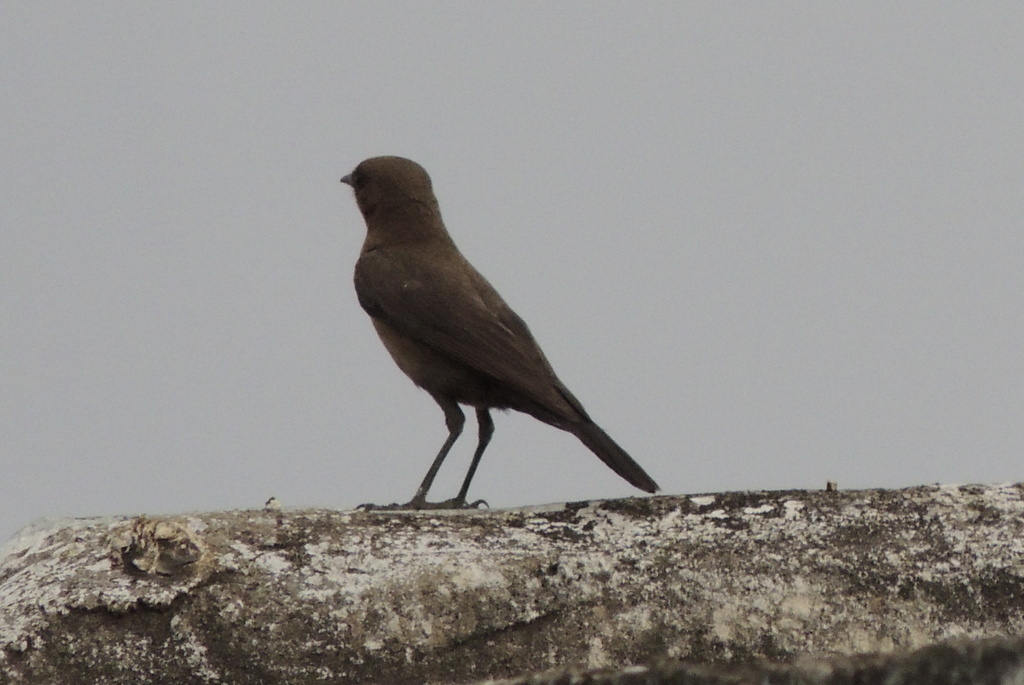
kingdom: Animalia
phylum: Chordata
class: Aves
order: Passeriformes
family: Muscicapidae
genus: Oenanthe
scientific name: Oenanthe fusca
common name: Brown rock chat
